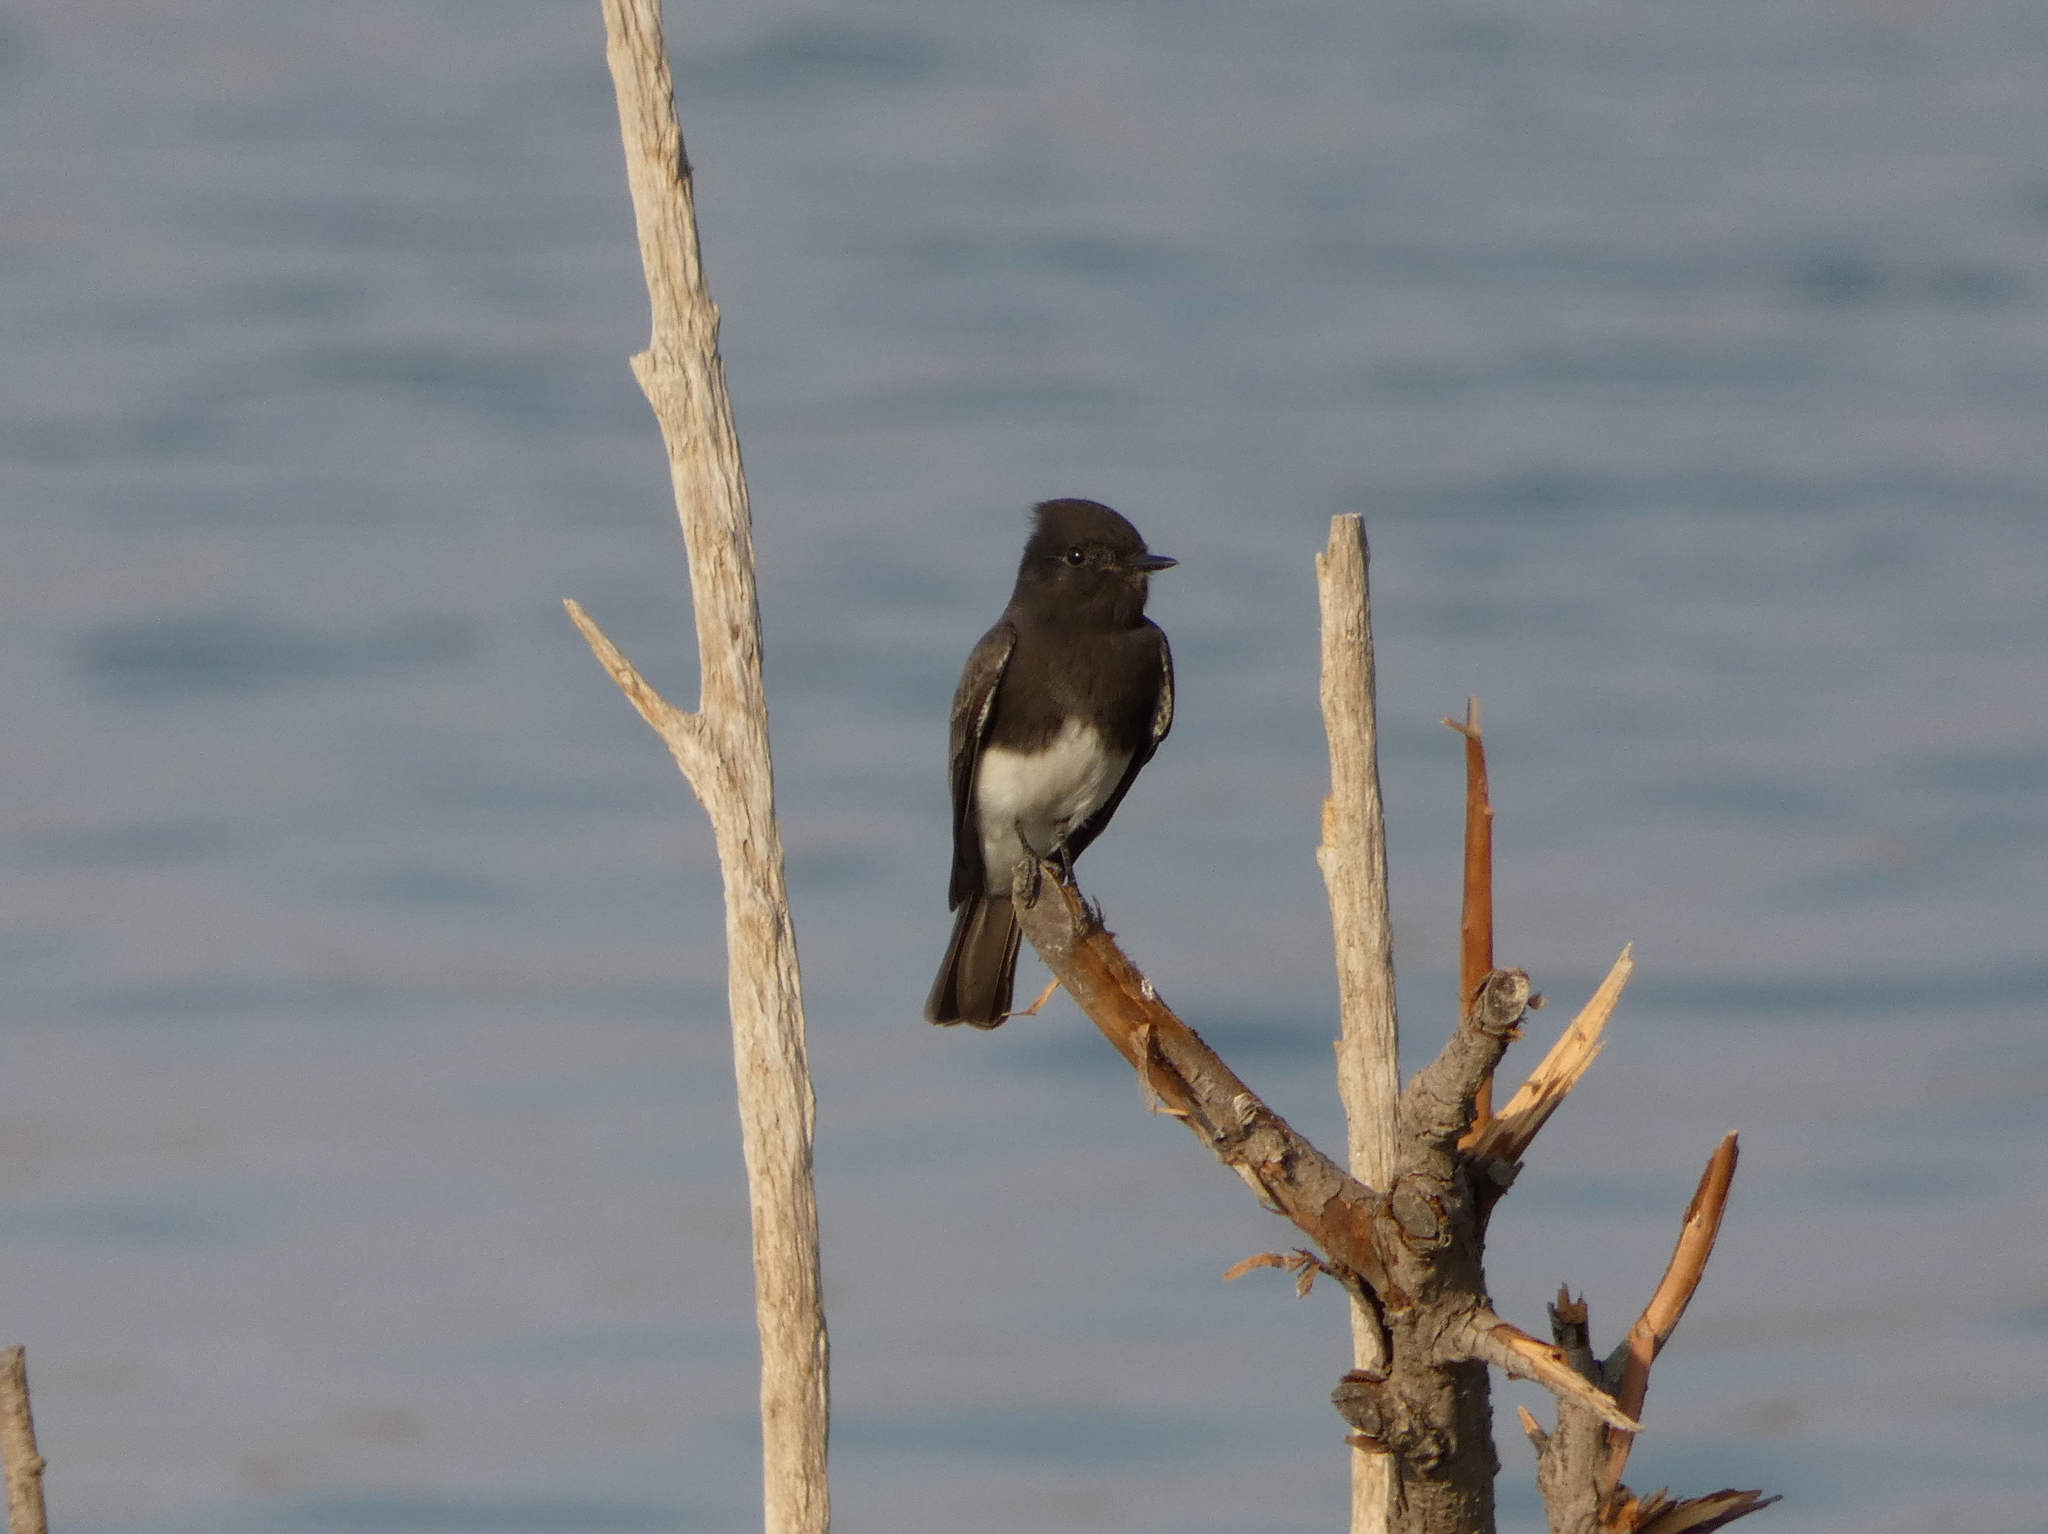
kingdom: Animalia
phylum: Chordata
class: Aves
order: Passeriformes
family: Tyrannidae
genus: Sayornis
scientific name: Sayornis nigricans
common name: Black phoebe
